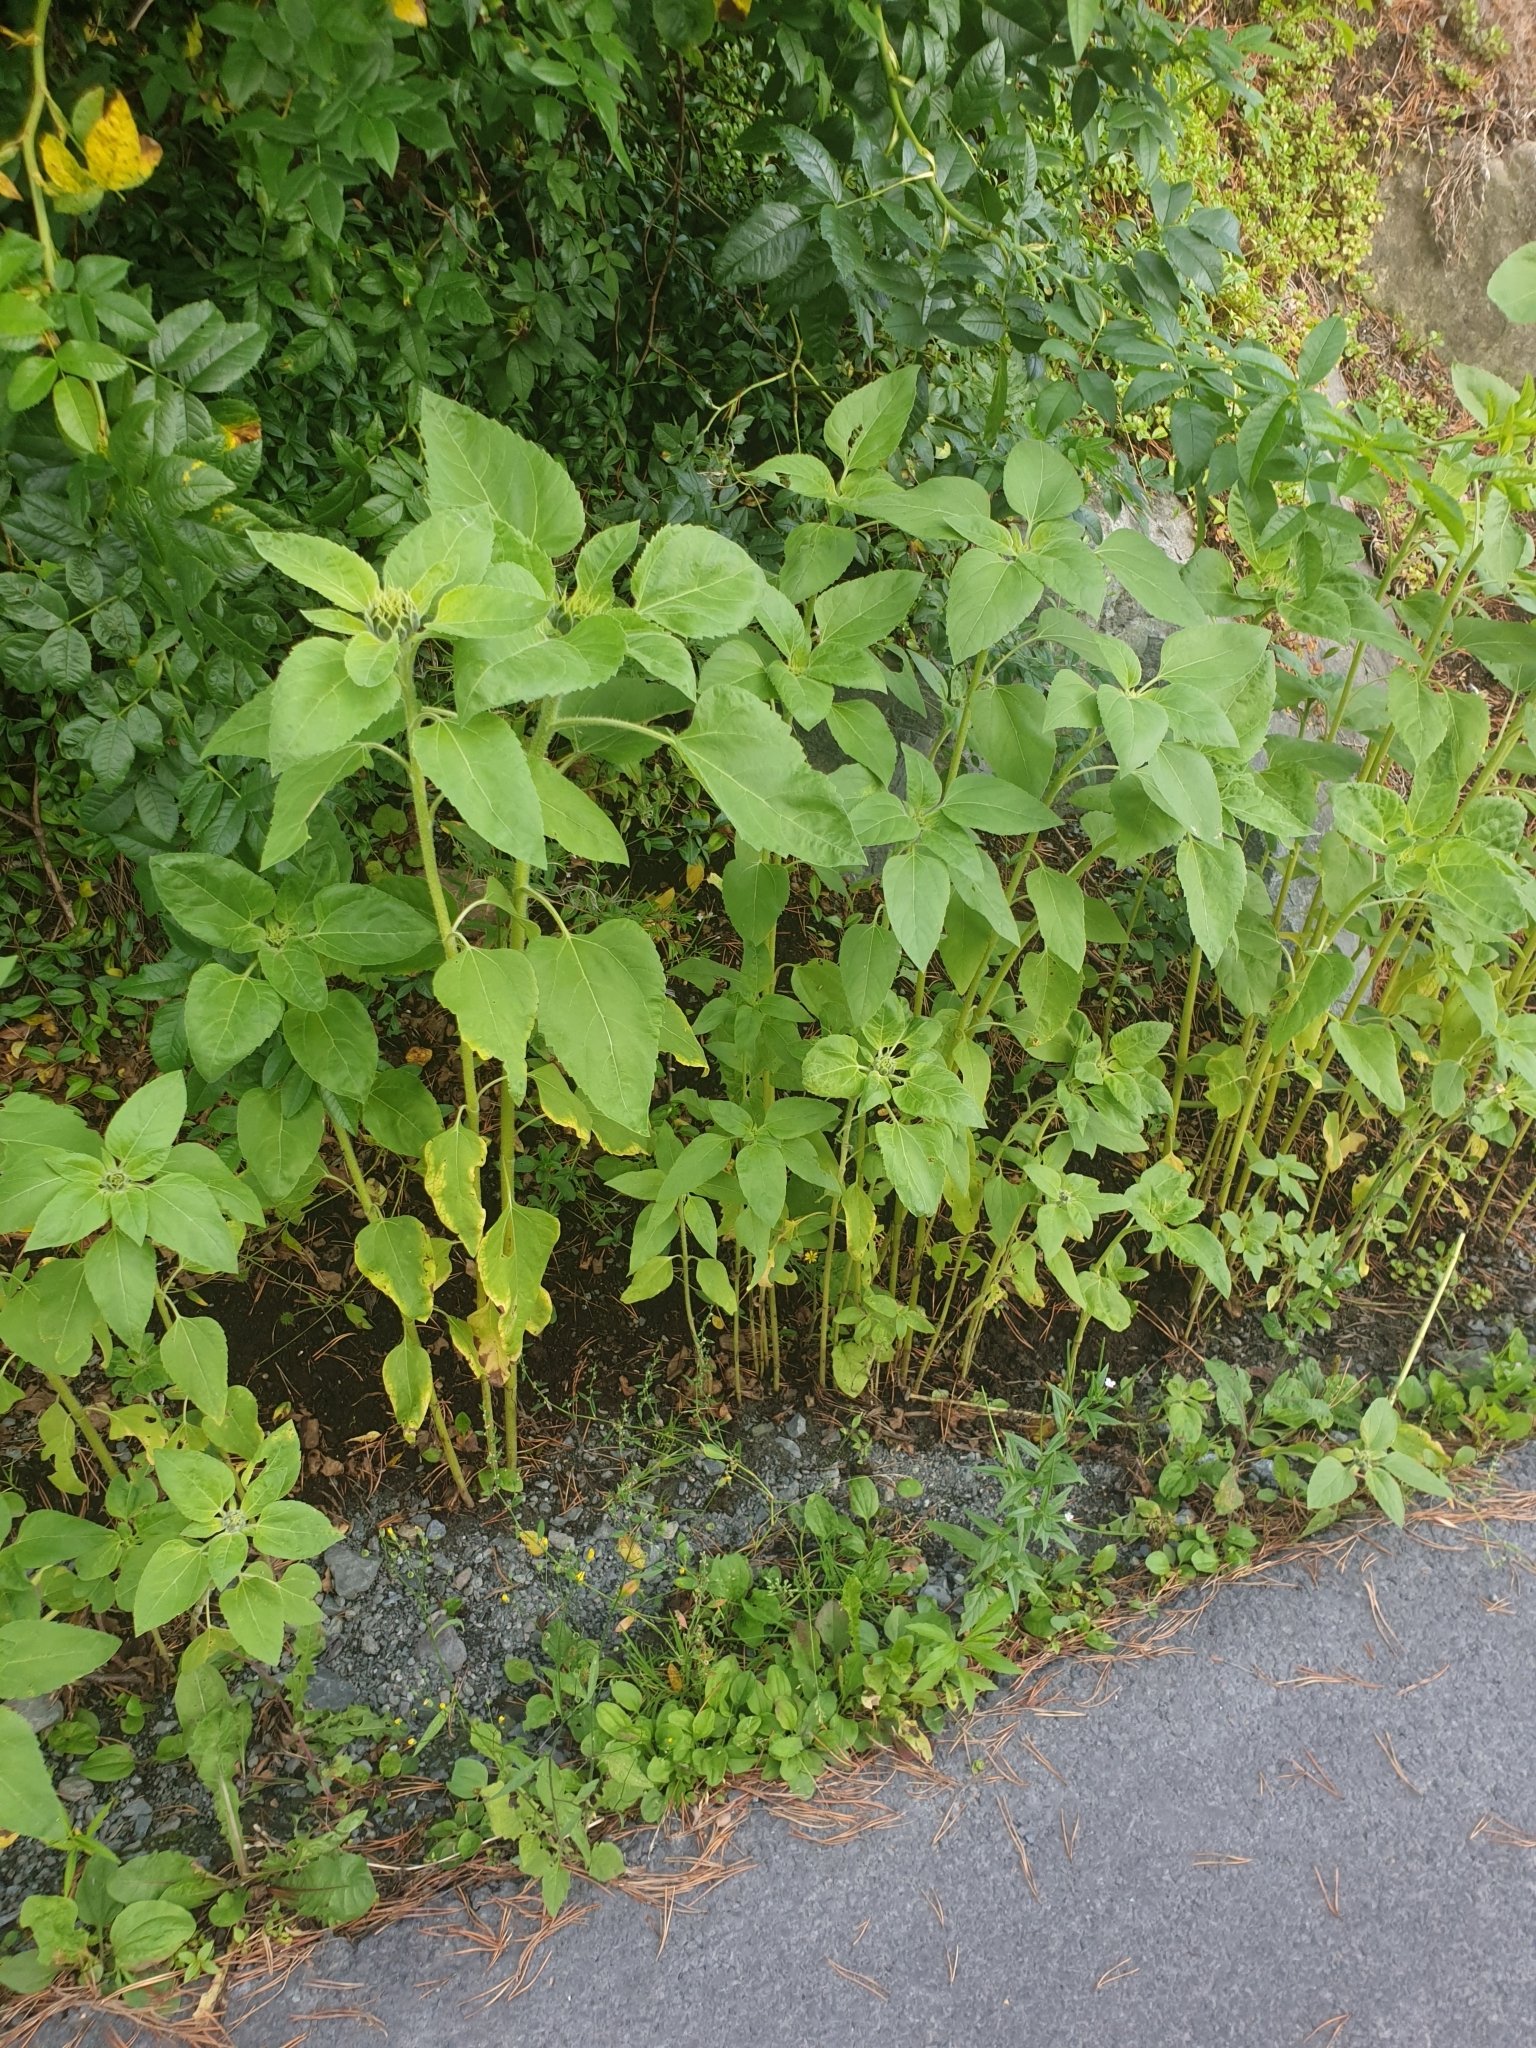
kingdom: Plantae
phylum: Tracheophyta
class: Magnoliopsida
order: Asterales
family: Asteraceae
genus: Helianthus
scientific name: Helianthus annuus
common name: Sunflower
